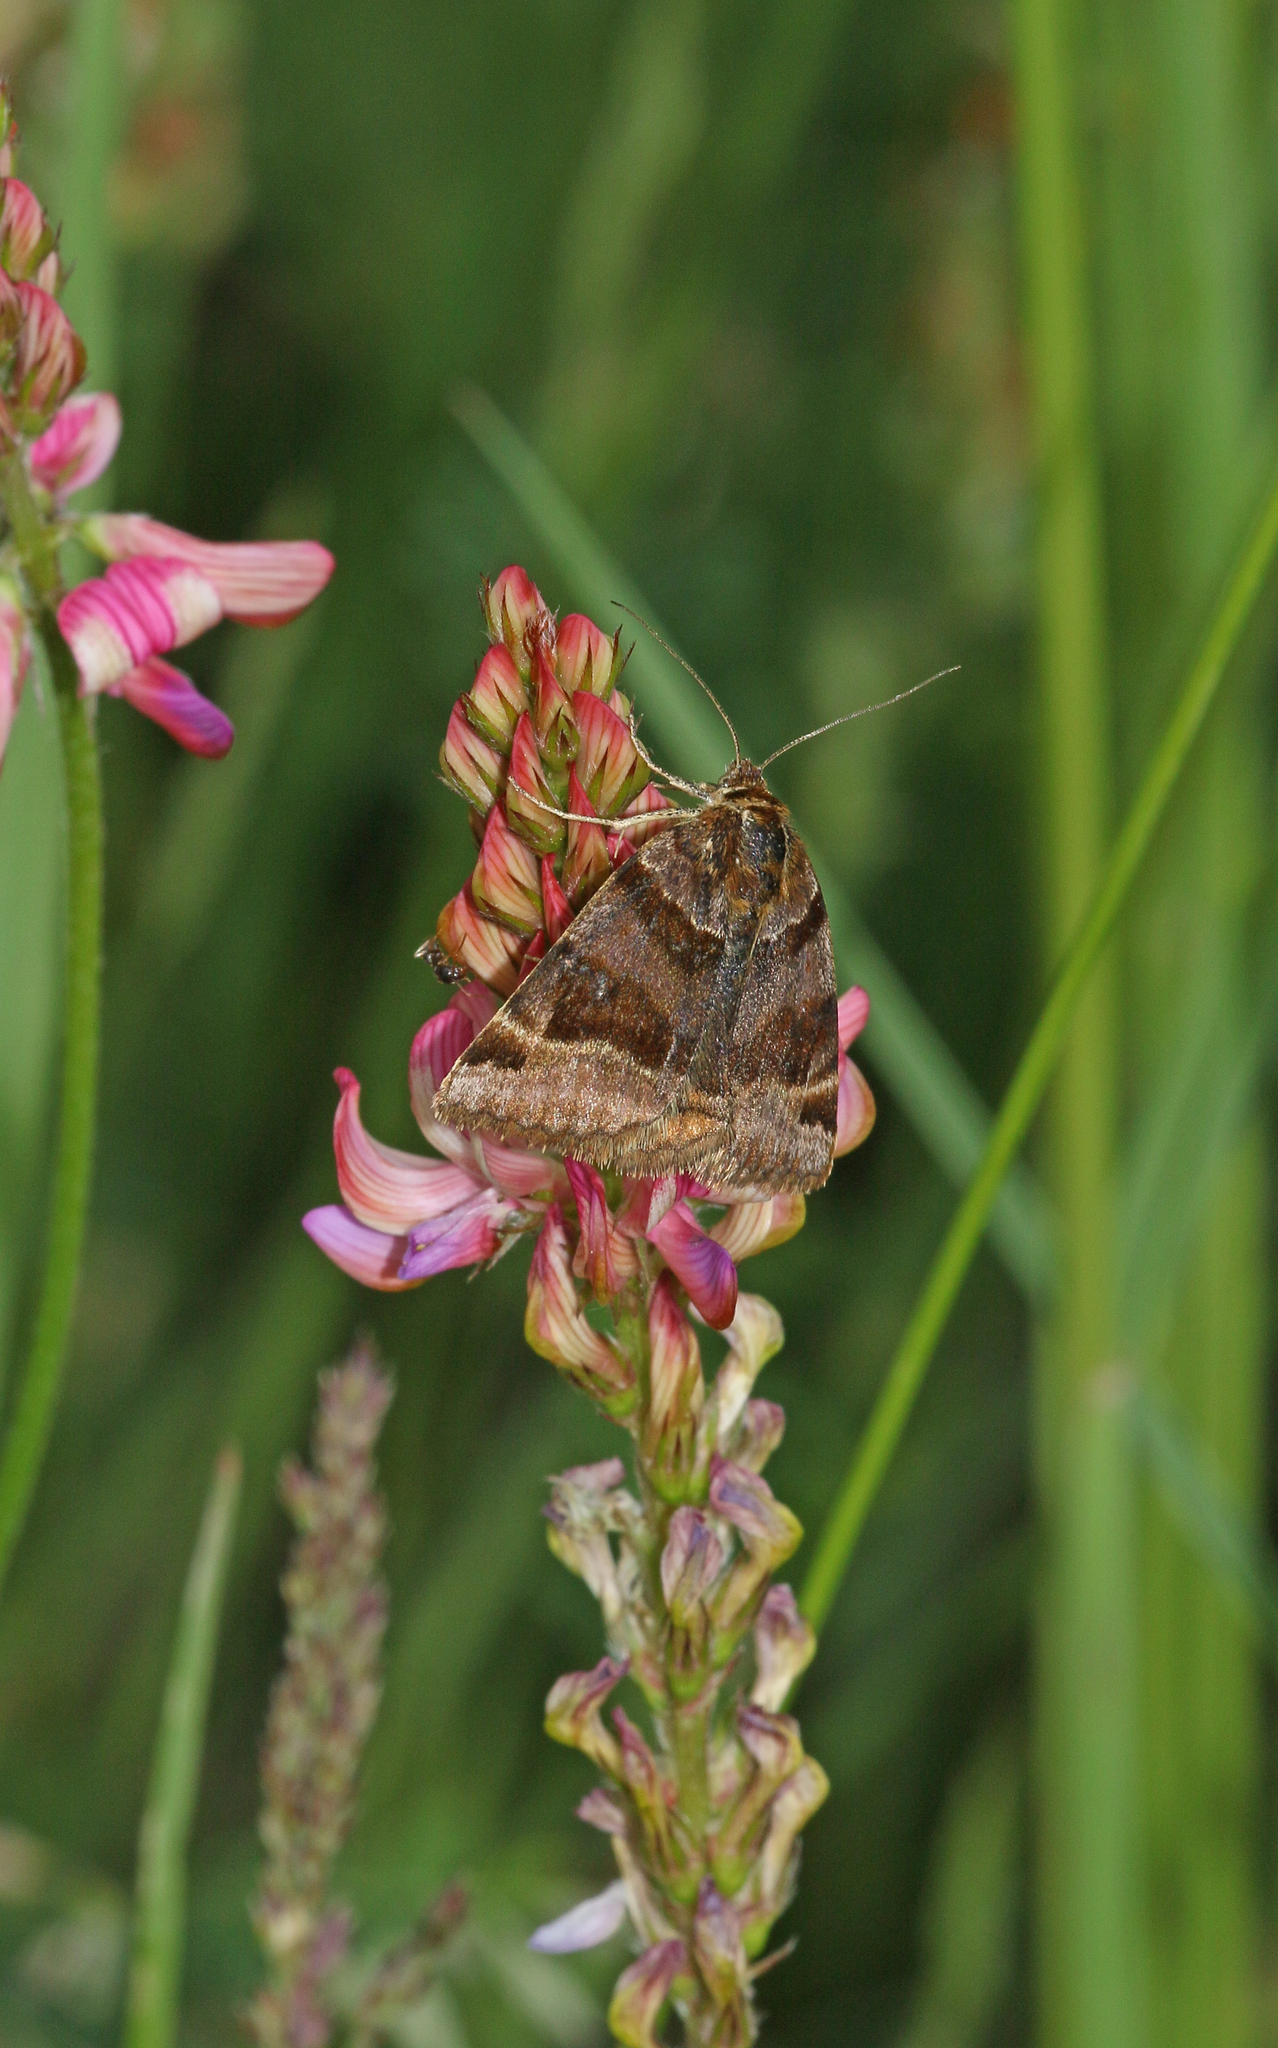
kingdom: Animalia
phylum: Arthropoda
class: Insecta
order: Lepidoptera
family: Erebidae
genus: Euclidia
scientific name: Euclidia glyphica
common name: Burnet companion
